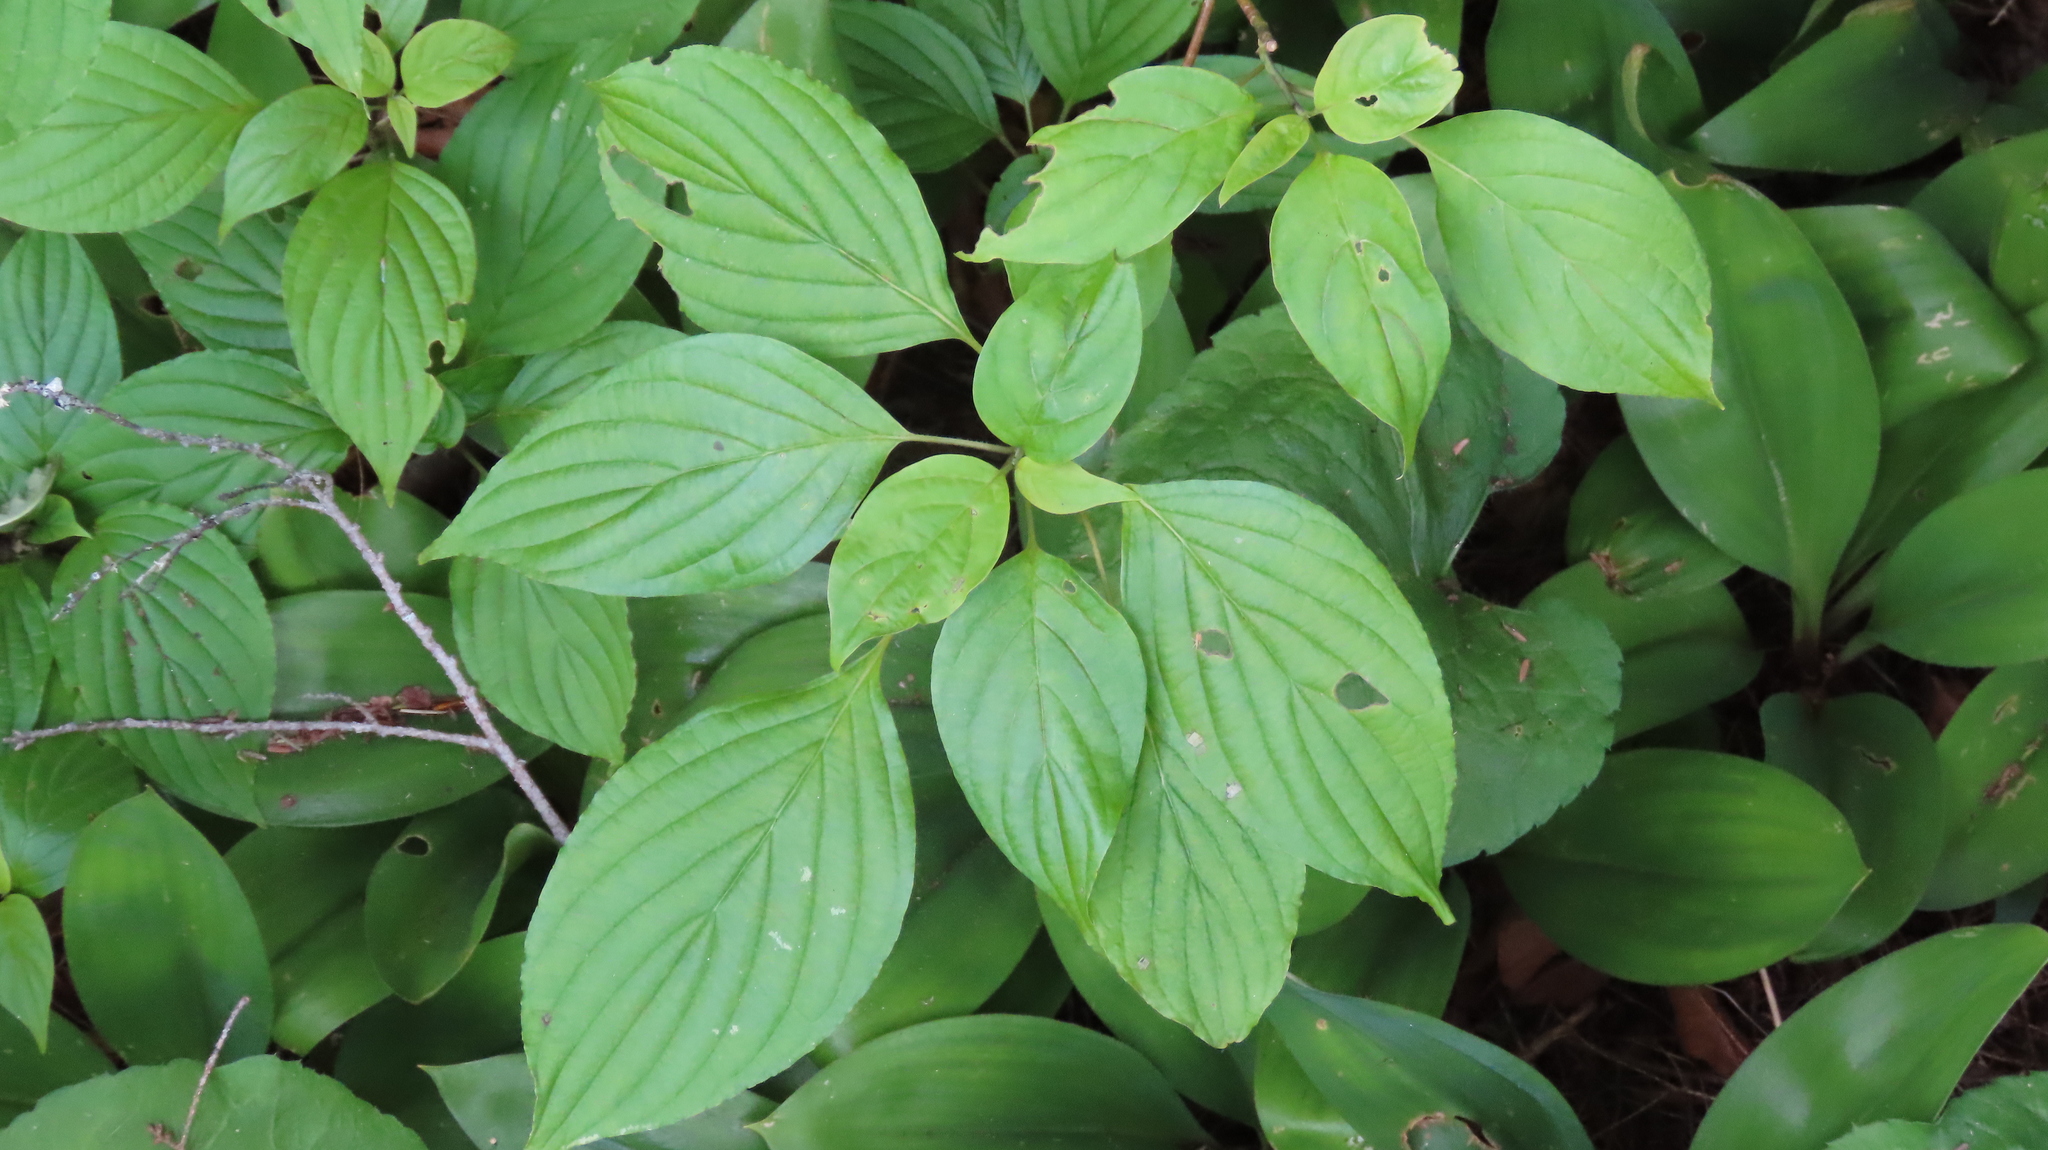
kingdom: Plantae
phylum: Tracheophyta
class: Magnoliopsida
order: Cornales
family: Cornaceae
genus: Cornus
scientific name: Cornus alternifolia
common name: Pagoda dogwood
